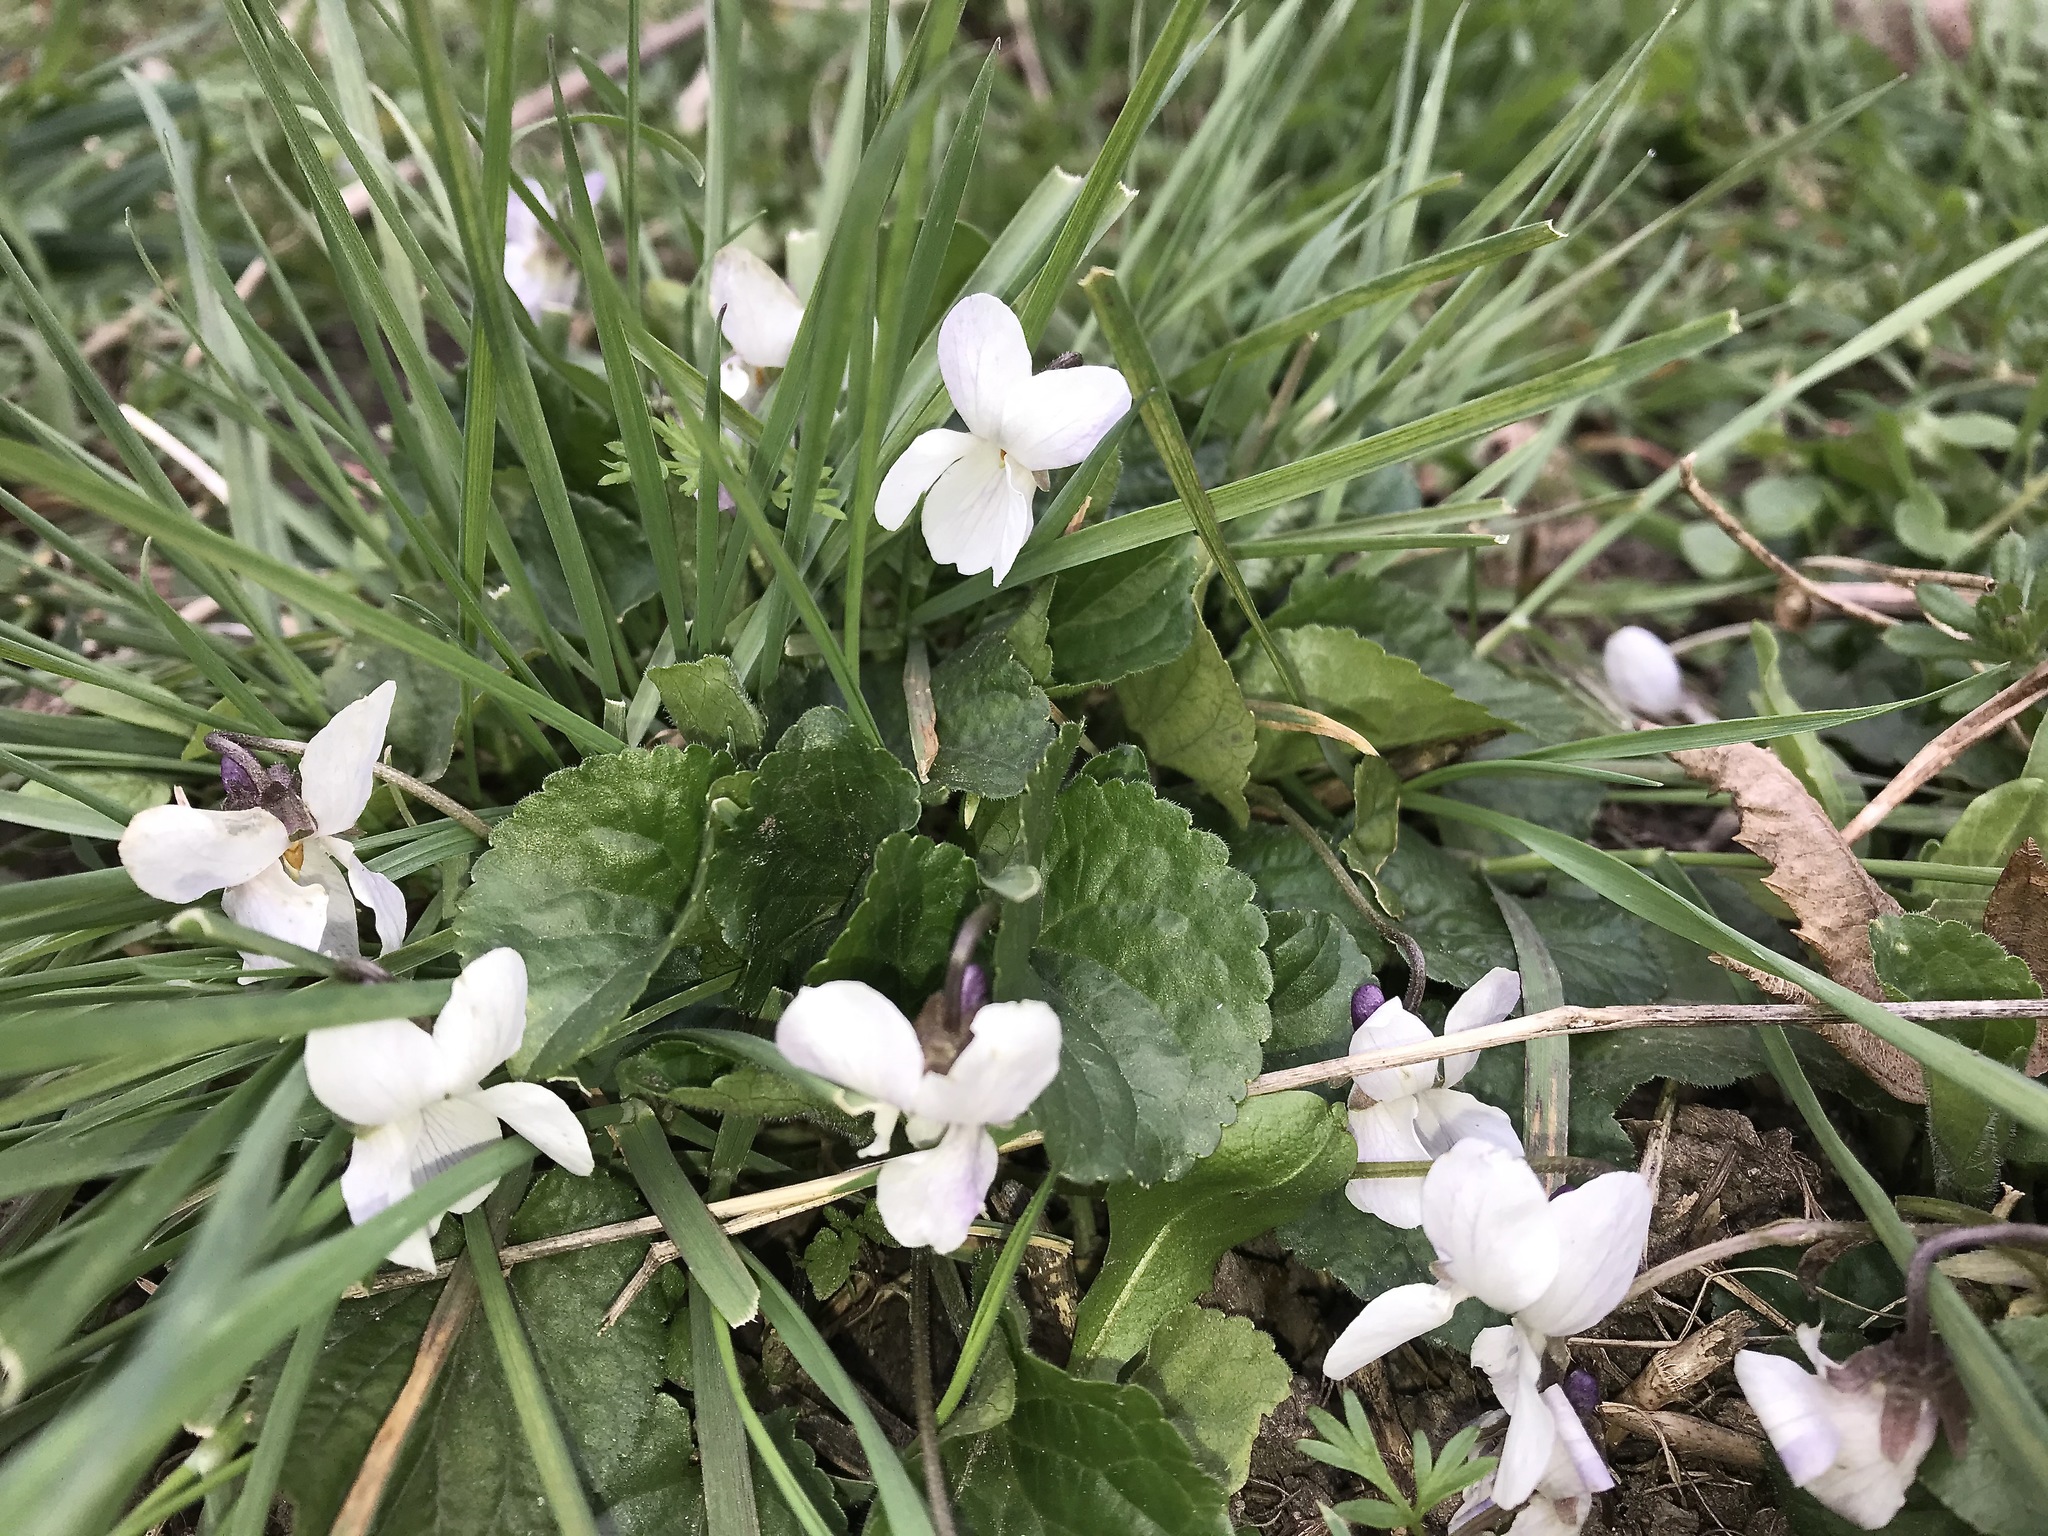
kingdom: Plantae
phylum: Tracheophyta
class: Magnoliopsida
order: Malpighiales
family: Violaceae
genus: Viola
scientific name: Viola odorata
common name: Sweet violet
